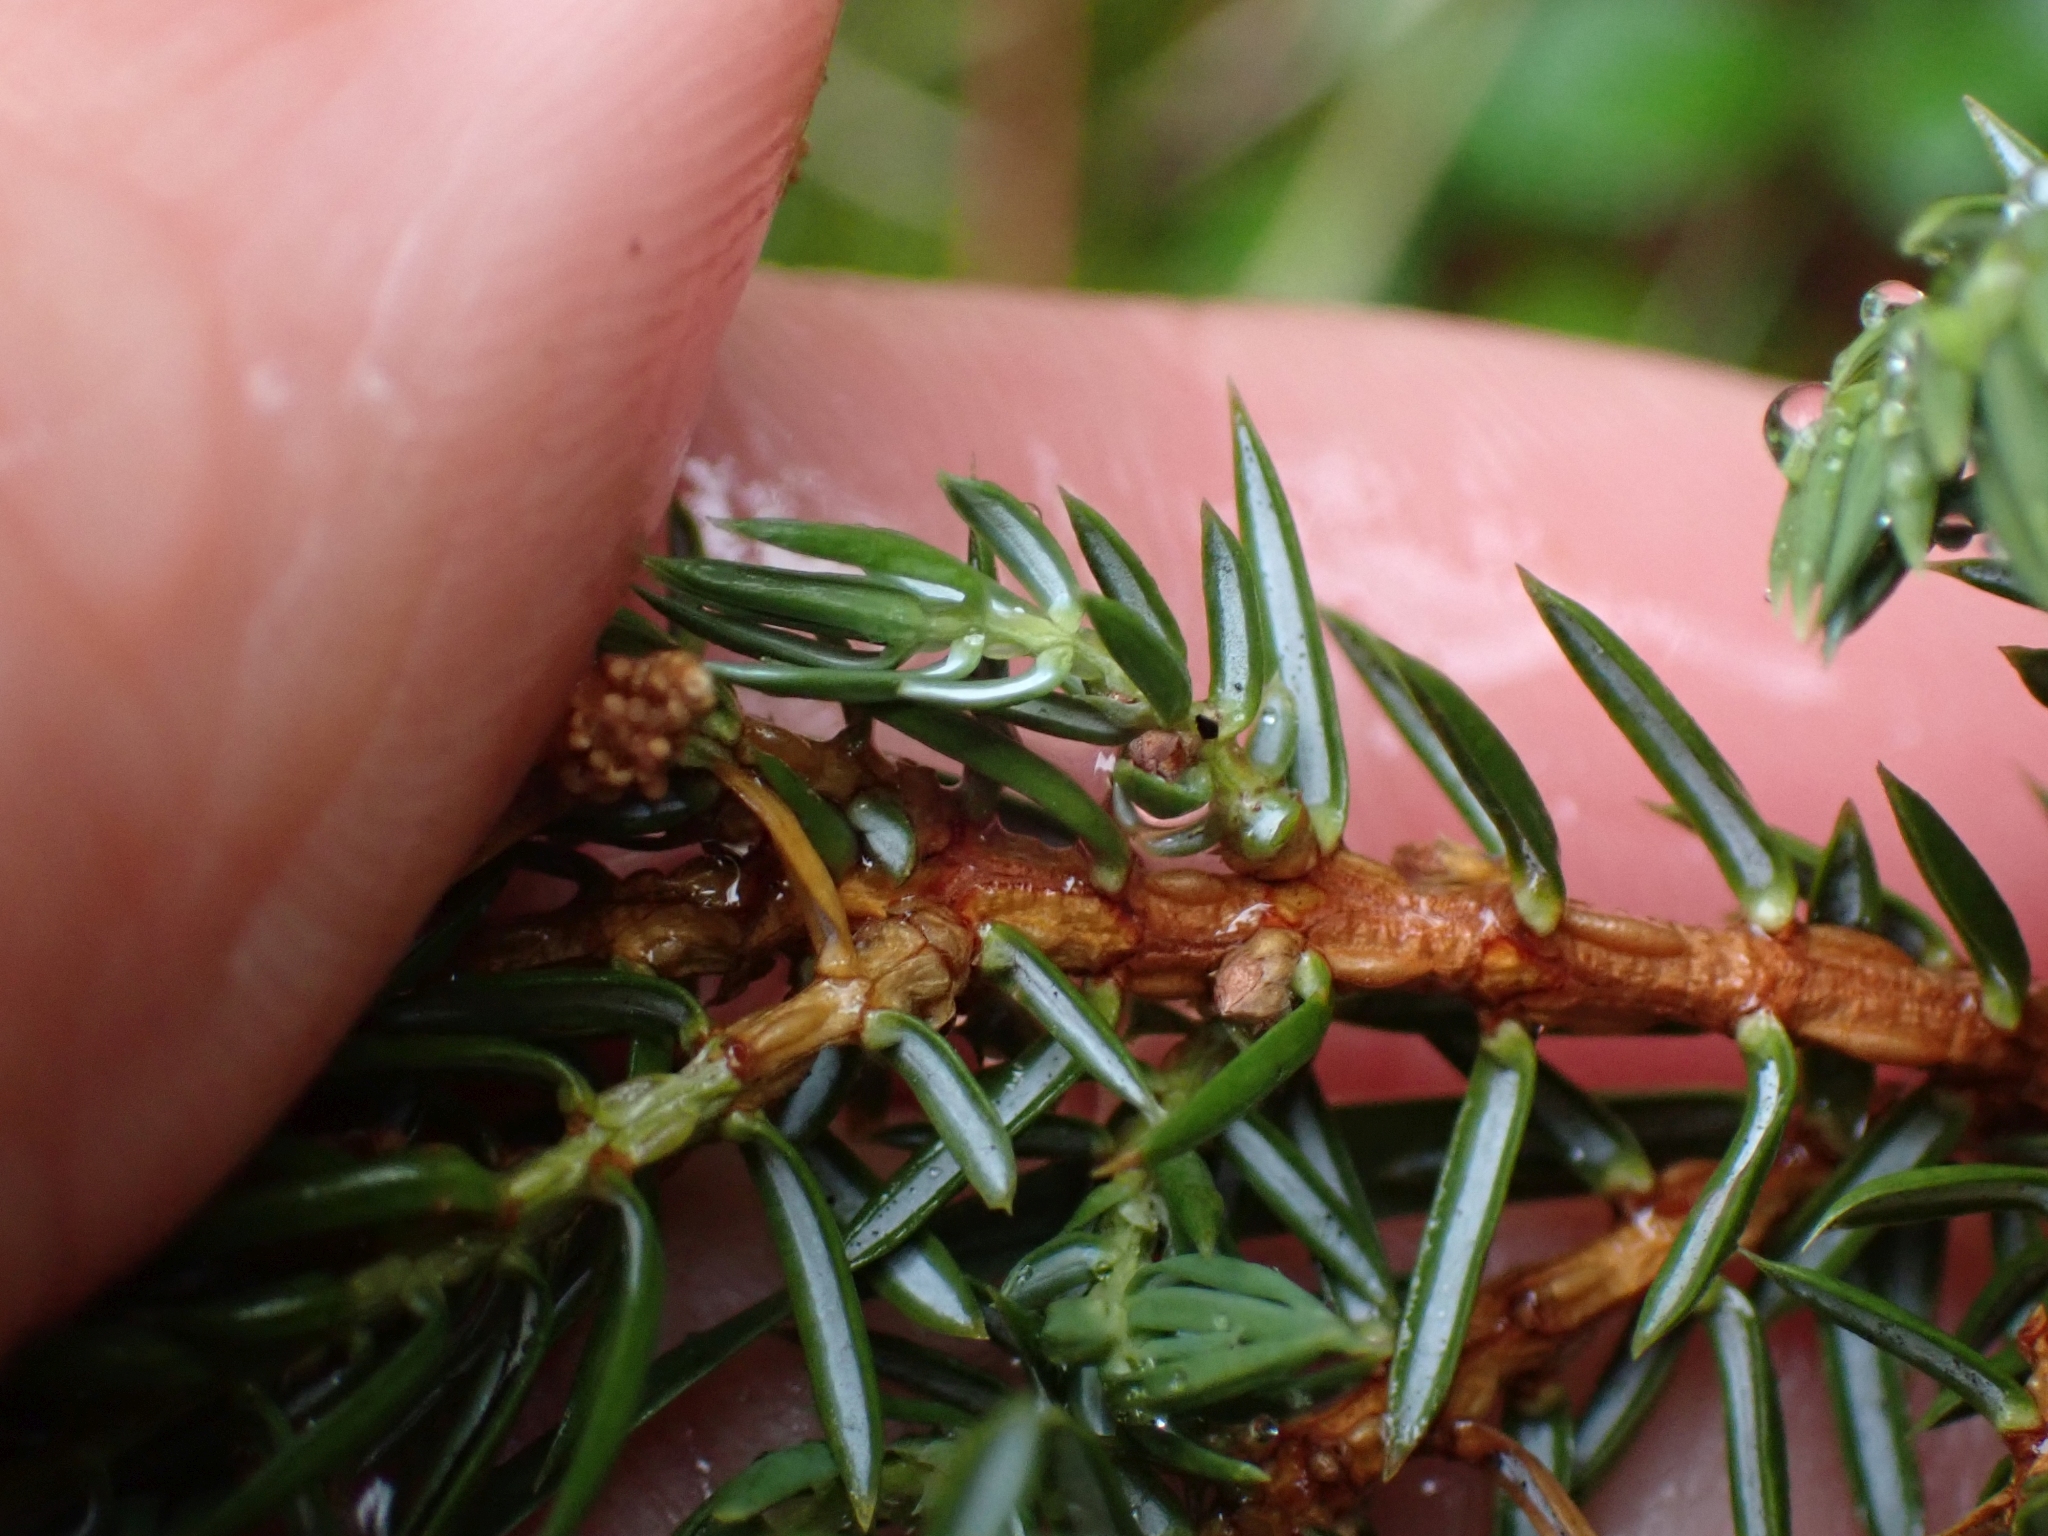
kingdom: Plantae
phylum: Tracheophyta
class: Pinopsida
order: Pinales
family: Cupressaceae
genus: Juniperus
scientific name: Juniperus communis
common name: Common juniper
